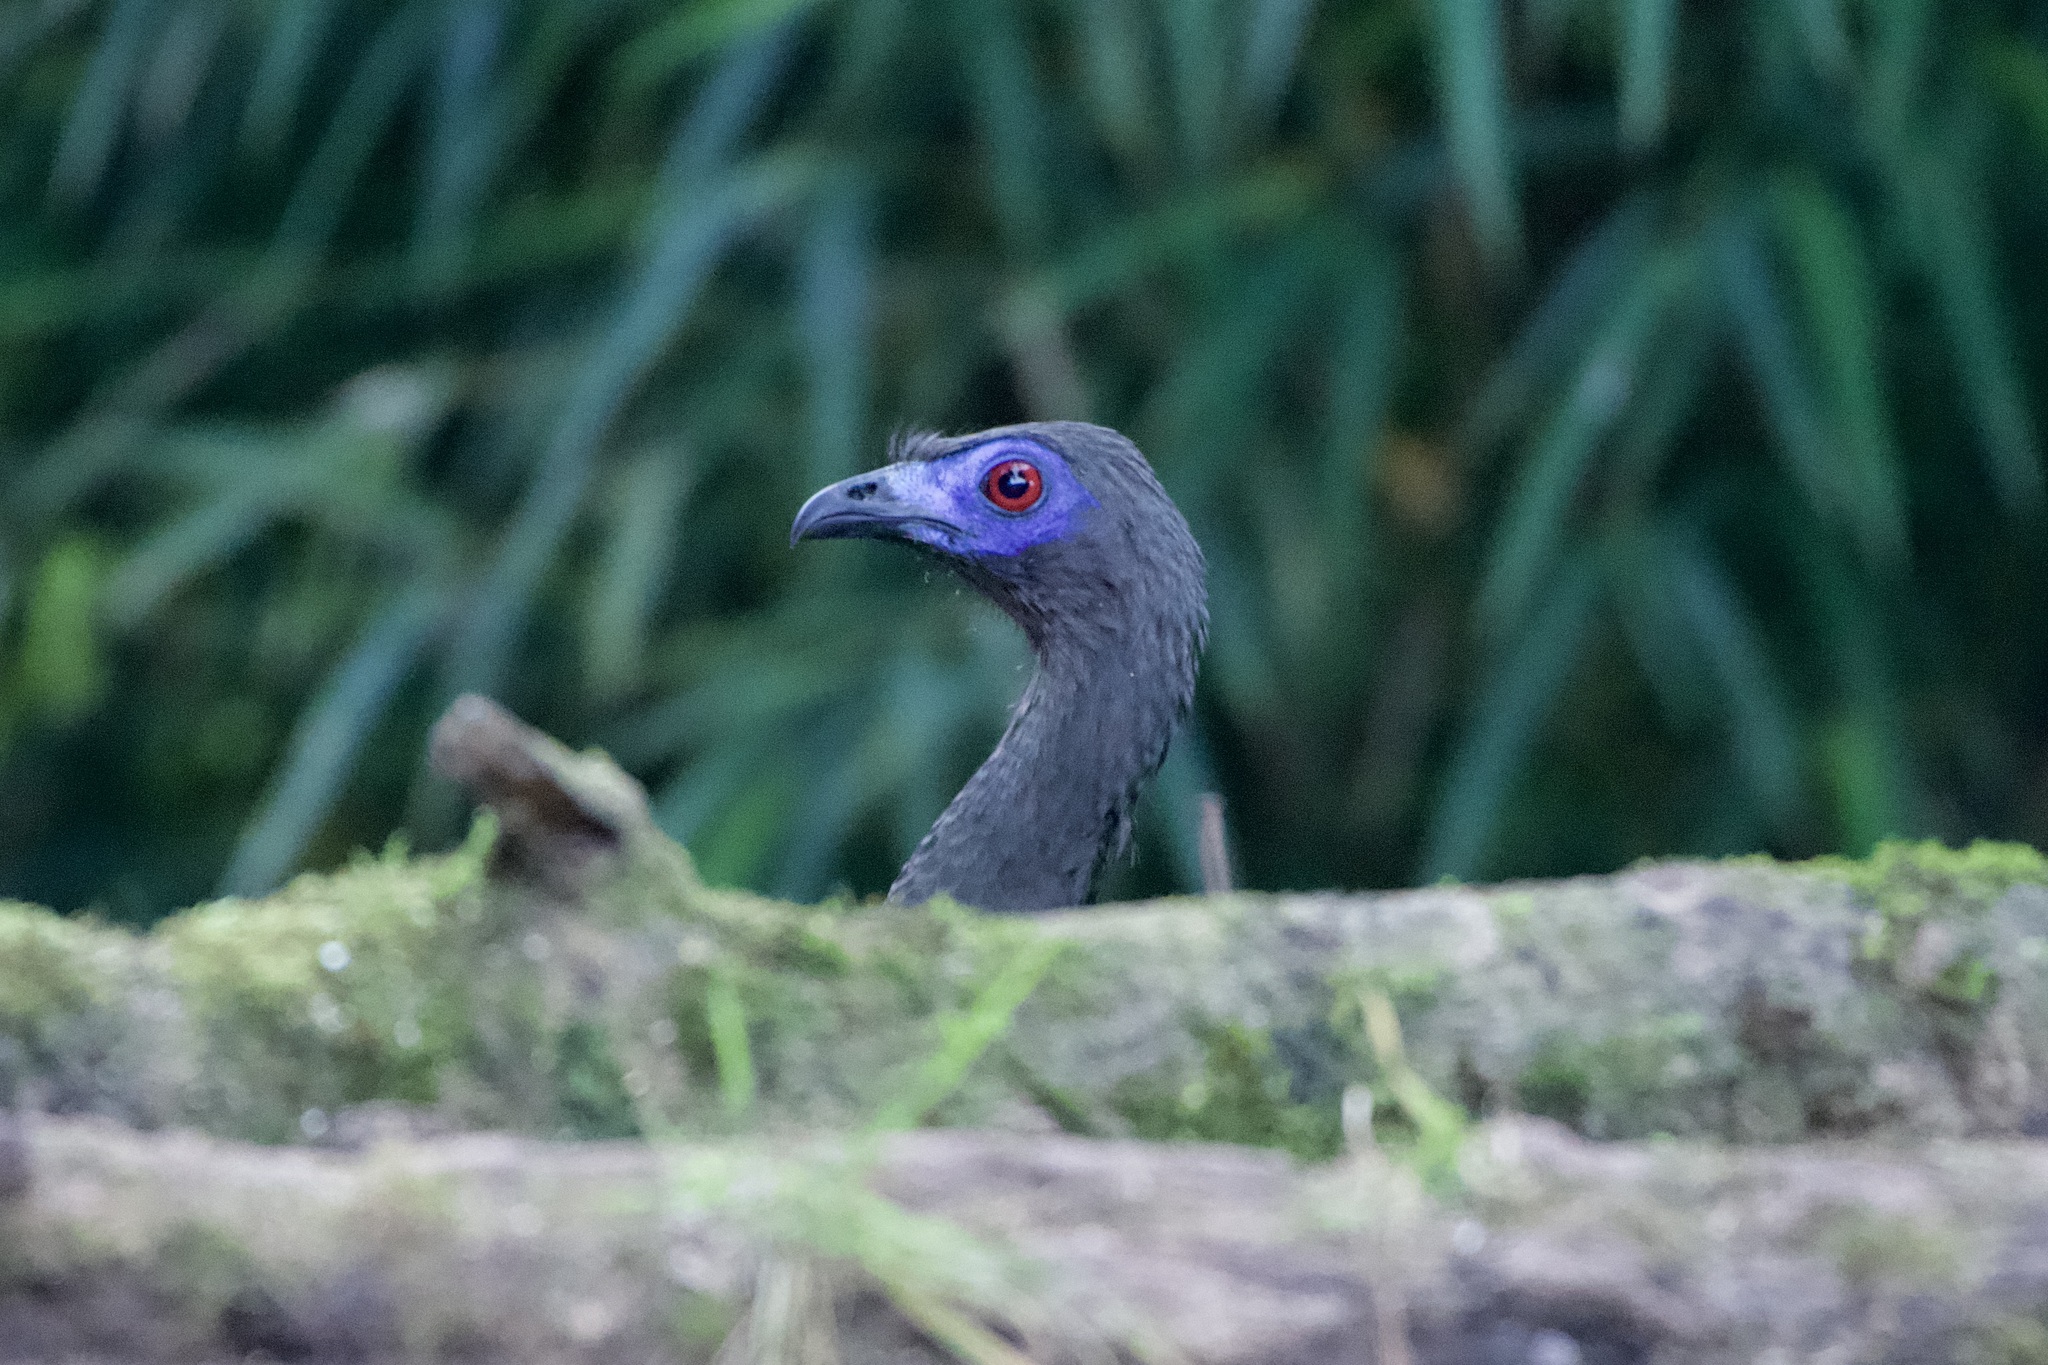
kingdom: Animalia
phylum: Chordata
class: Aves
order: Galliformes
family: Cracidae
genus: Chamaepetes
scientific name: Chamaepetes goudotii
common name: Sickle-winged guan
